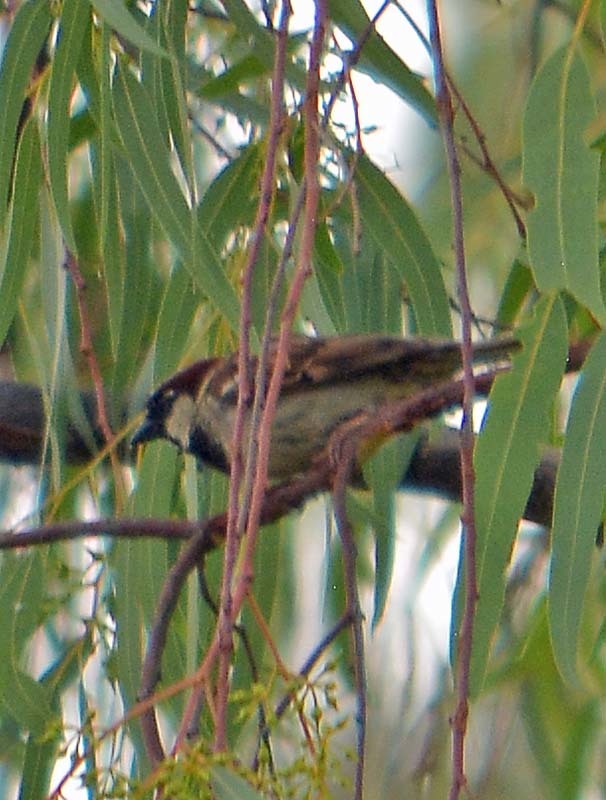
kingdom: Animalia
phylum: Chordata
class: Aves
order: Passeriformes
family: Passeridae
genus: Passer
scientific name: Passer domesticus
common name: House sparrow
